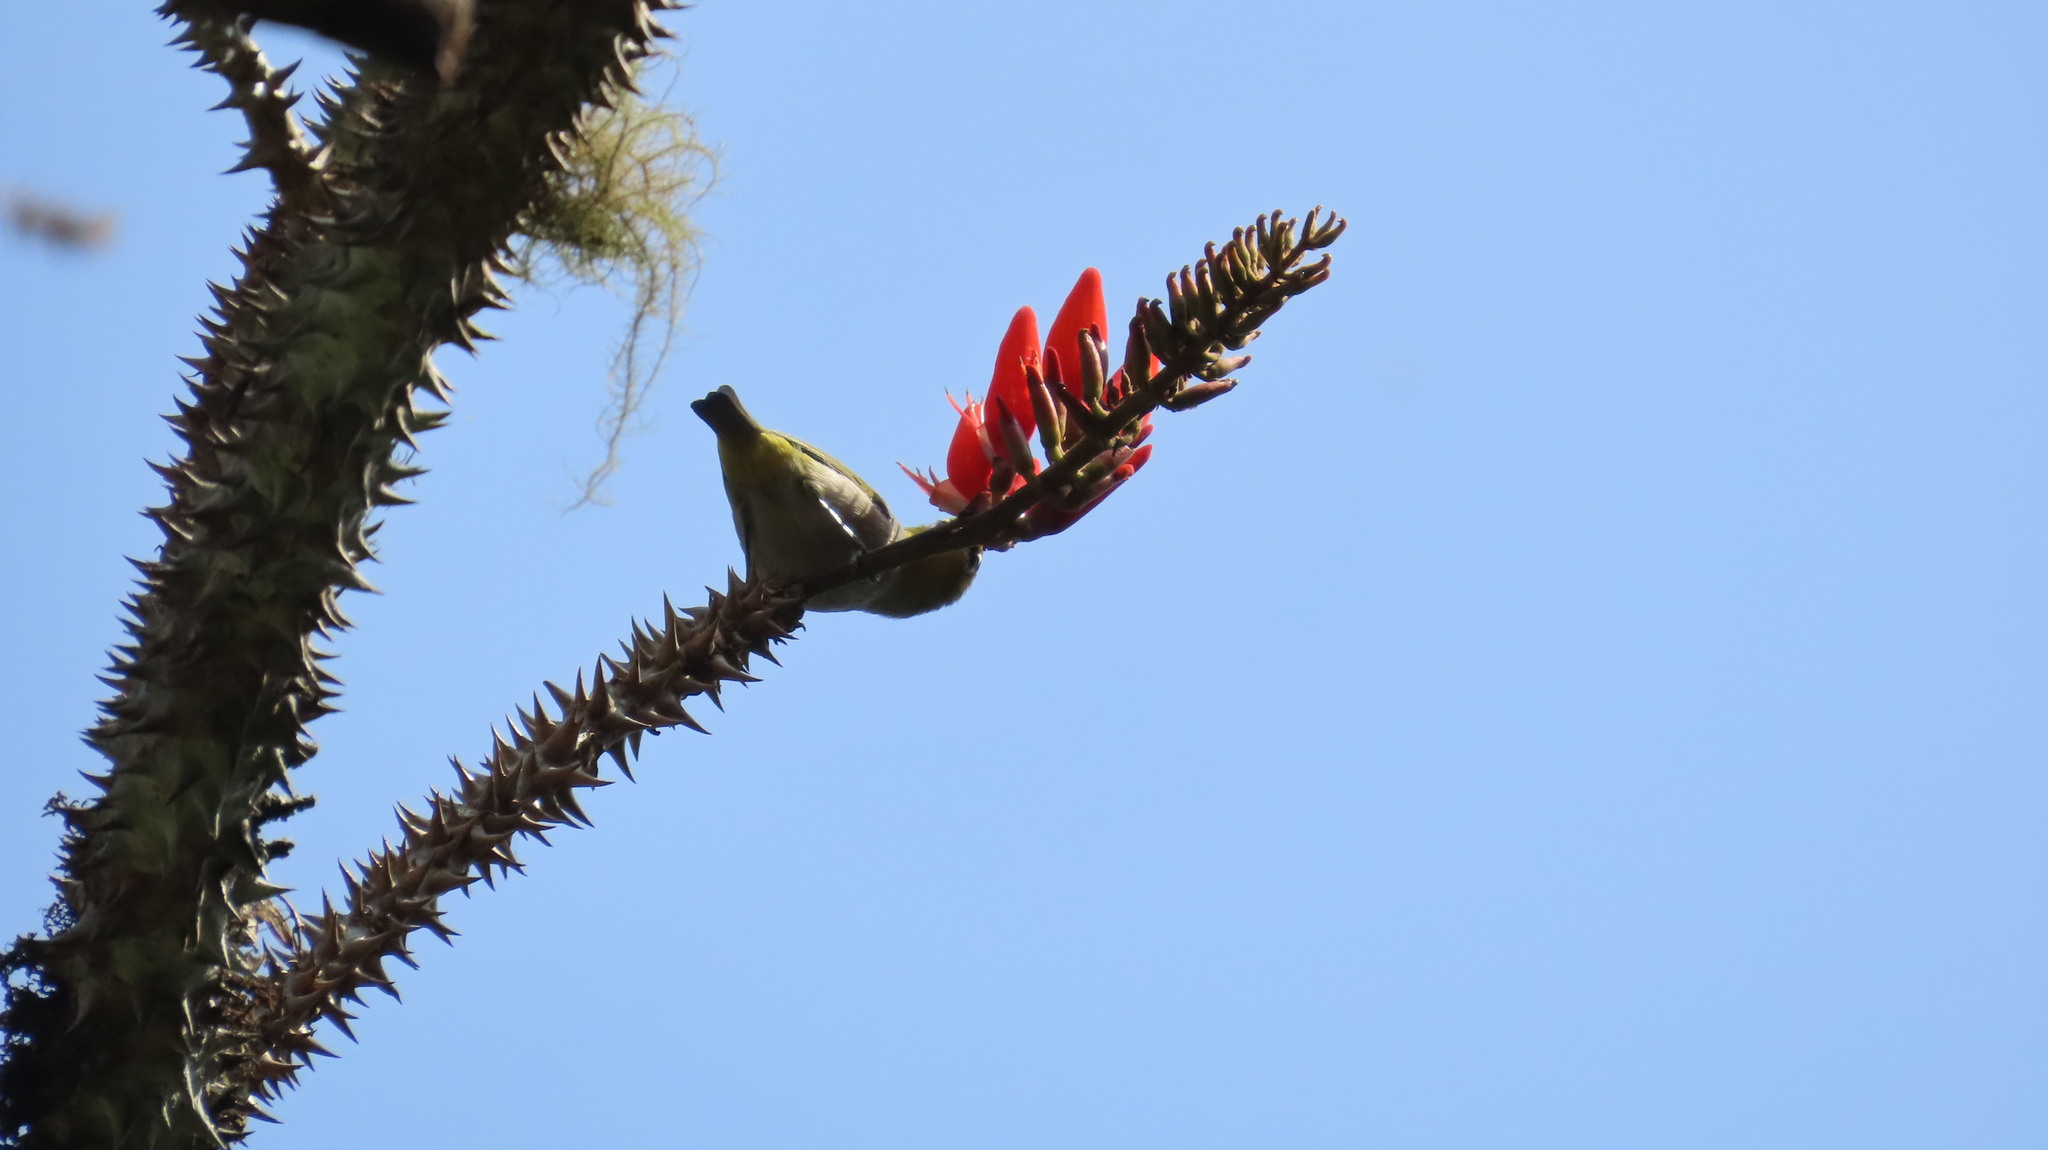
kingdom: Animalia
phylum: Chordata
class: Aves
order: Passeriformes
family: Zosteropidae
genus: Zosterops
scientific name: Zosterops palpebrosus
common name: Oriental white-eye
